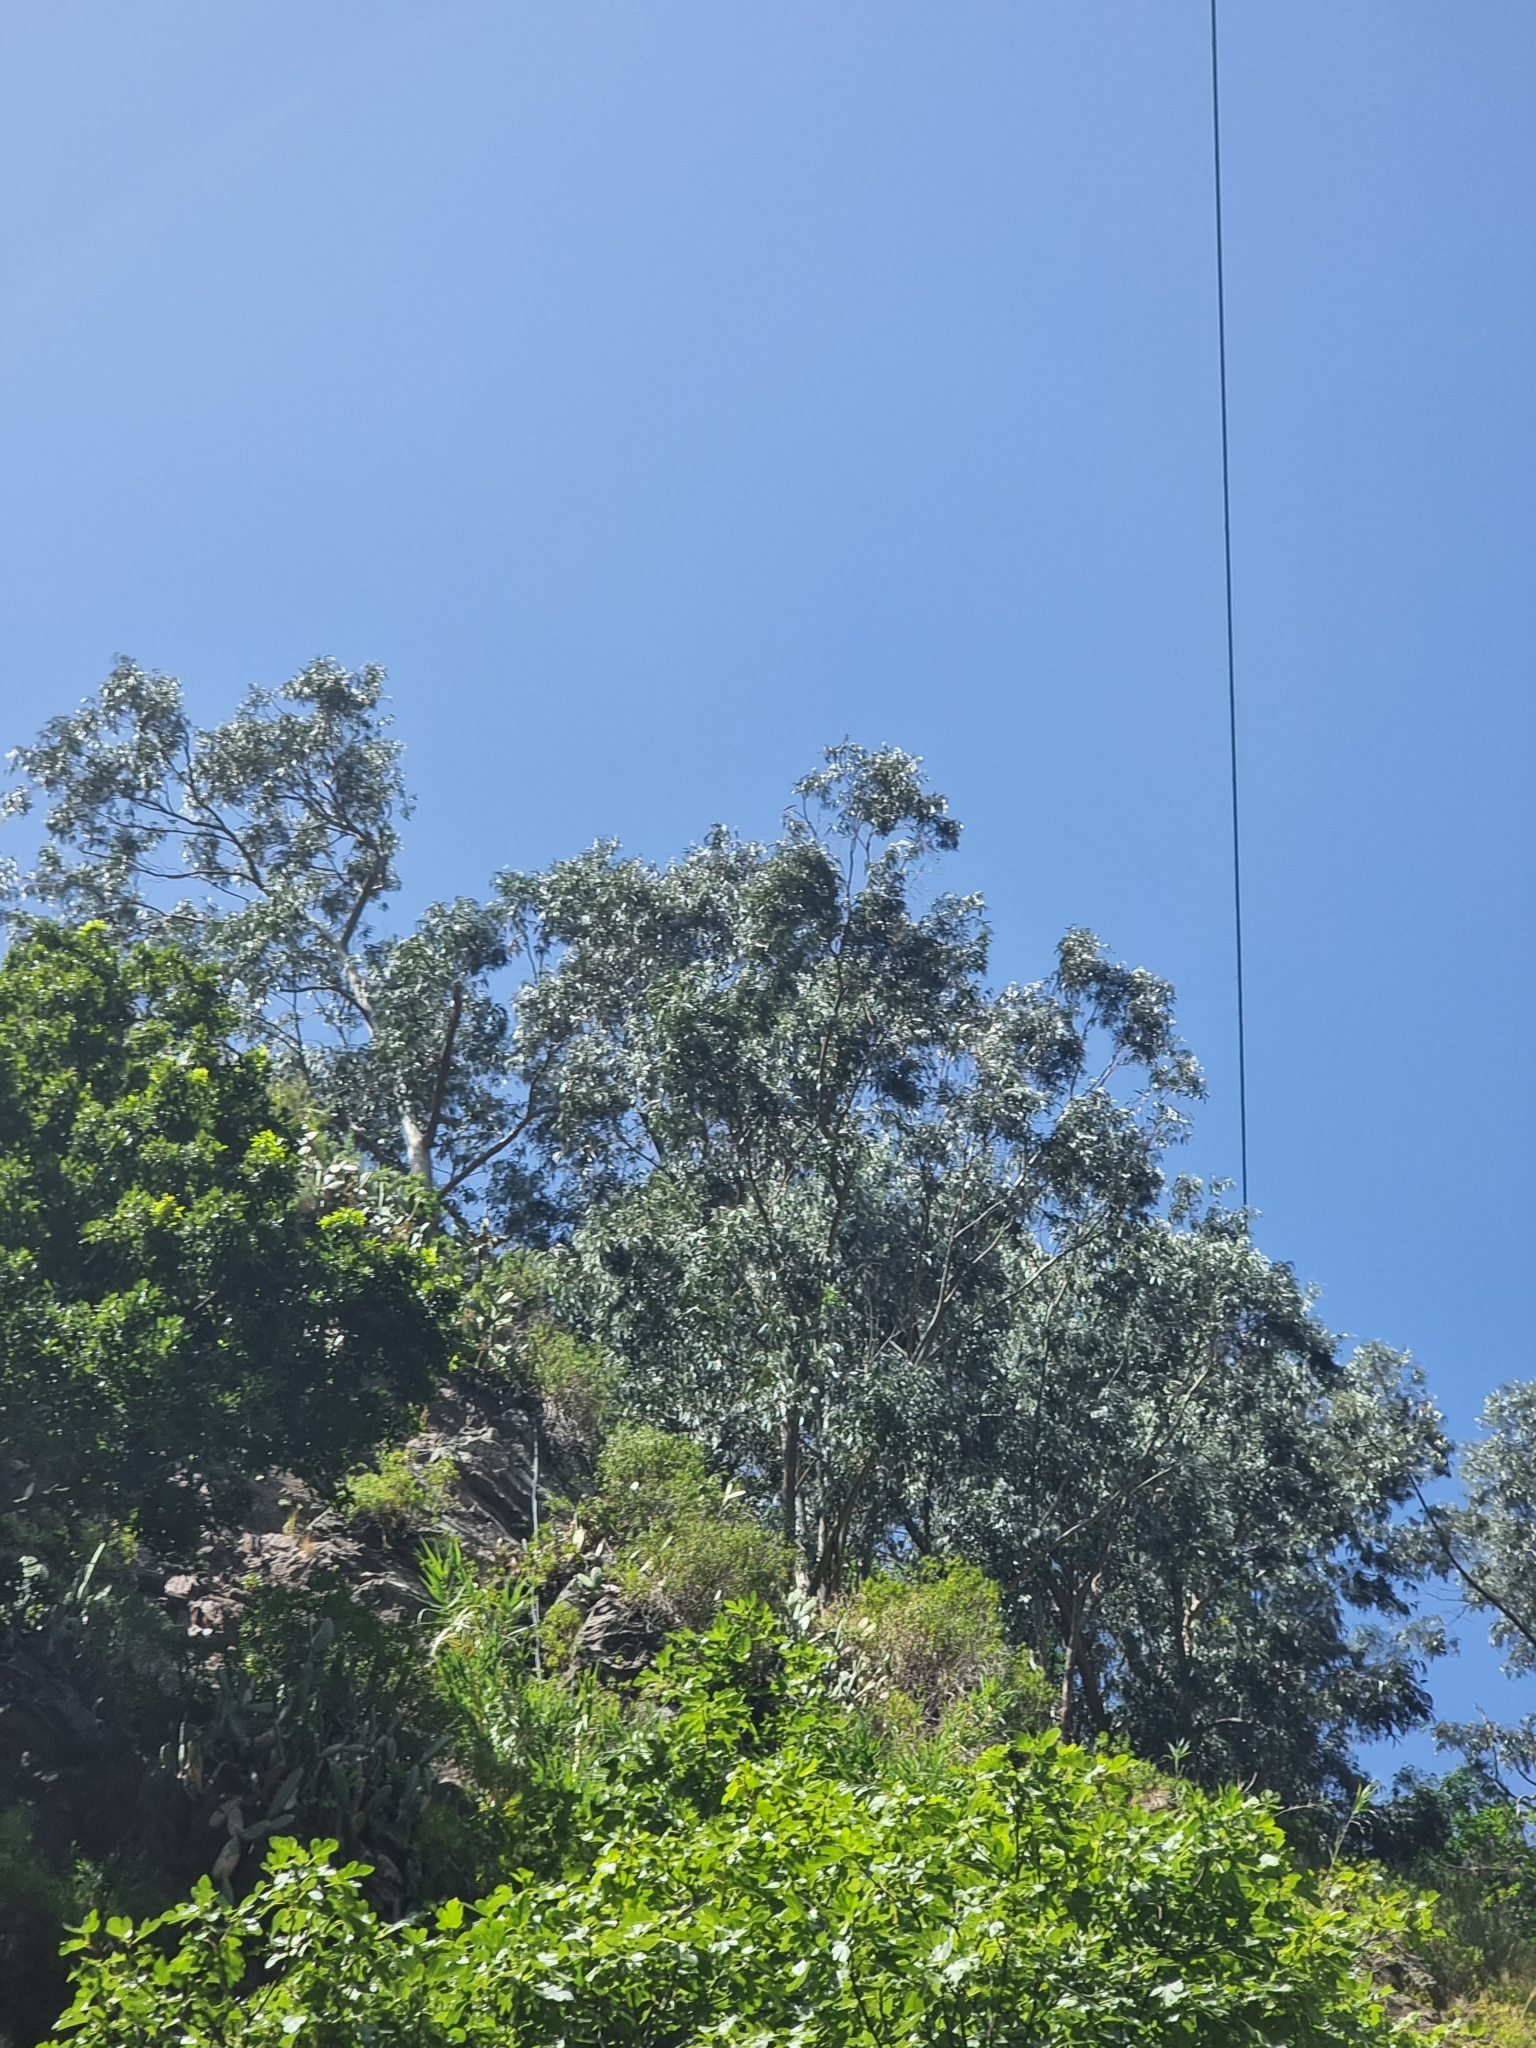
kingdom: Plantae
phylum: Tracheophyta
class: Magnoliopsida
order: Myrtales
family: Myrtaceae
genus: Eucalyptus
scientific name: Eucalyptus globulus
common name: Southern blue-gum
